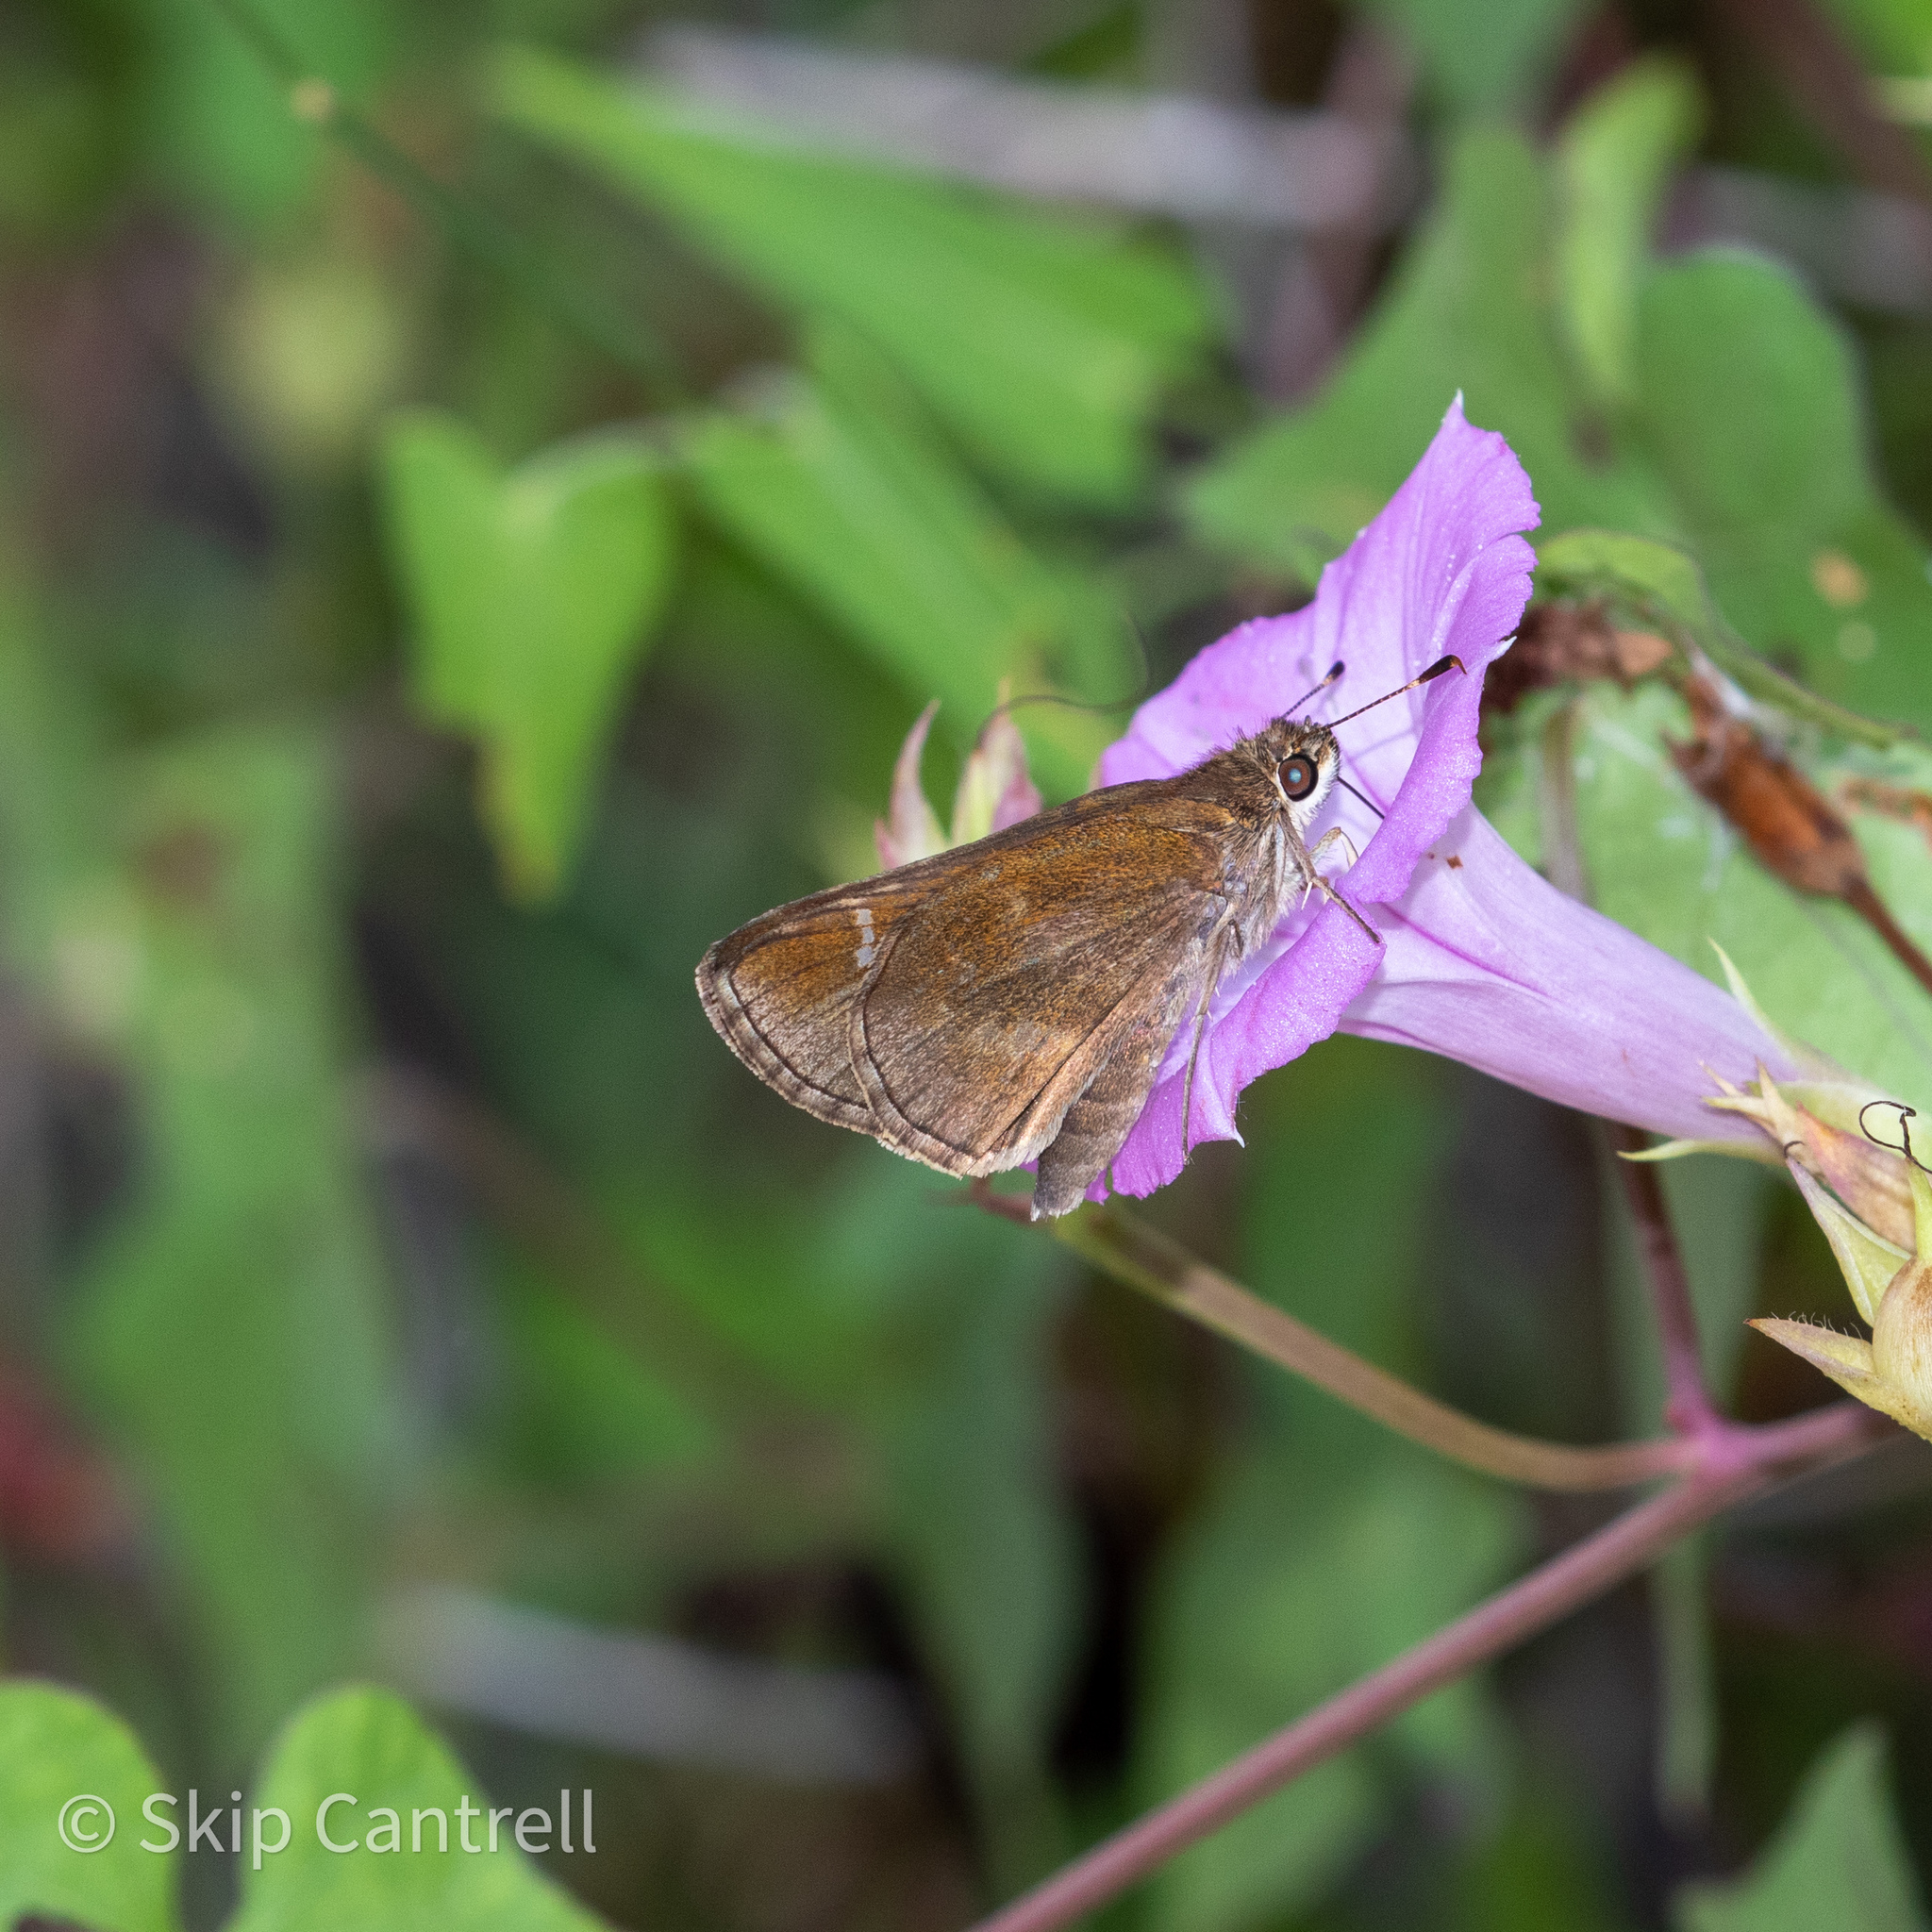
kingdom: Animalia
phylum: Arthropoda
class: Insecta
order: Lepidoptera
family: Hesperiidae
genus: Lerema
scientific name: Lerema accius
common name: Clouded skipper
